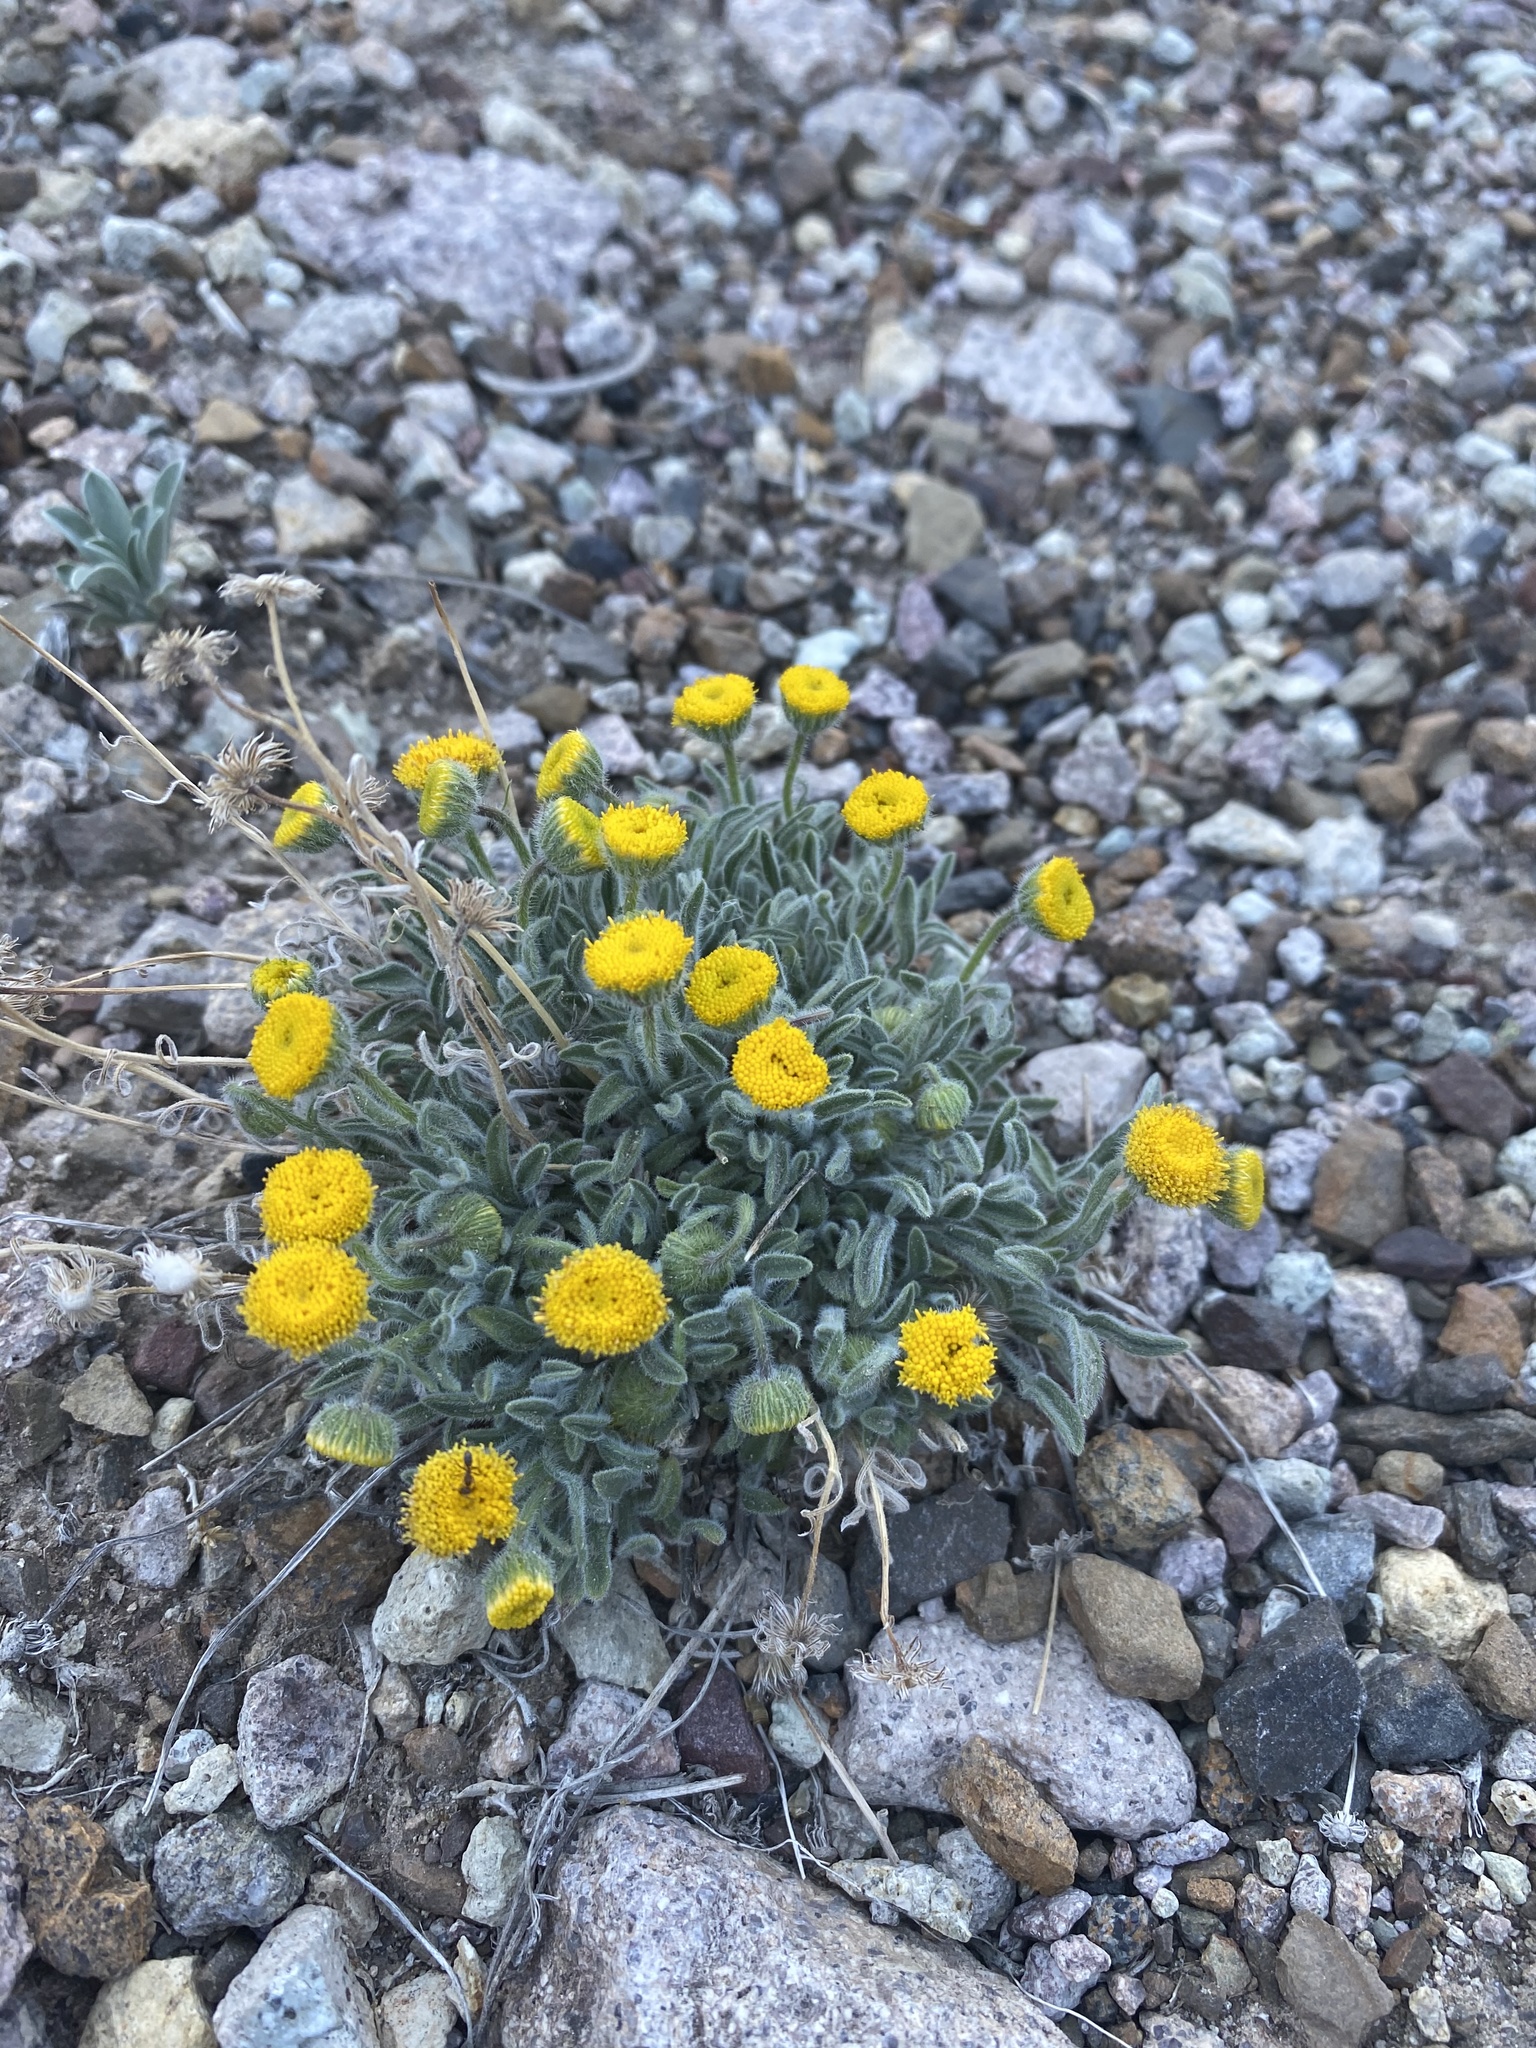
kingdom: Plantae
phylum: Tracheophyta
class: Magnoliopsida
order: Asterales
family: Asteraceae
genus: Erigeron
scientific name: Erigeron aphanactis
